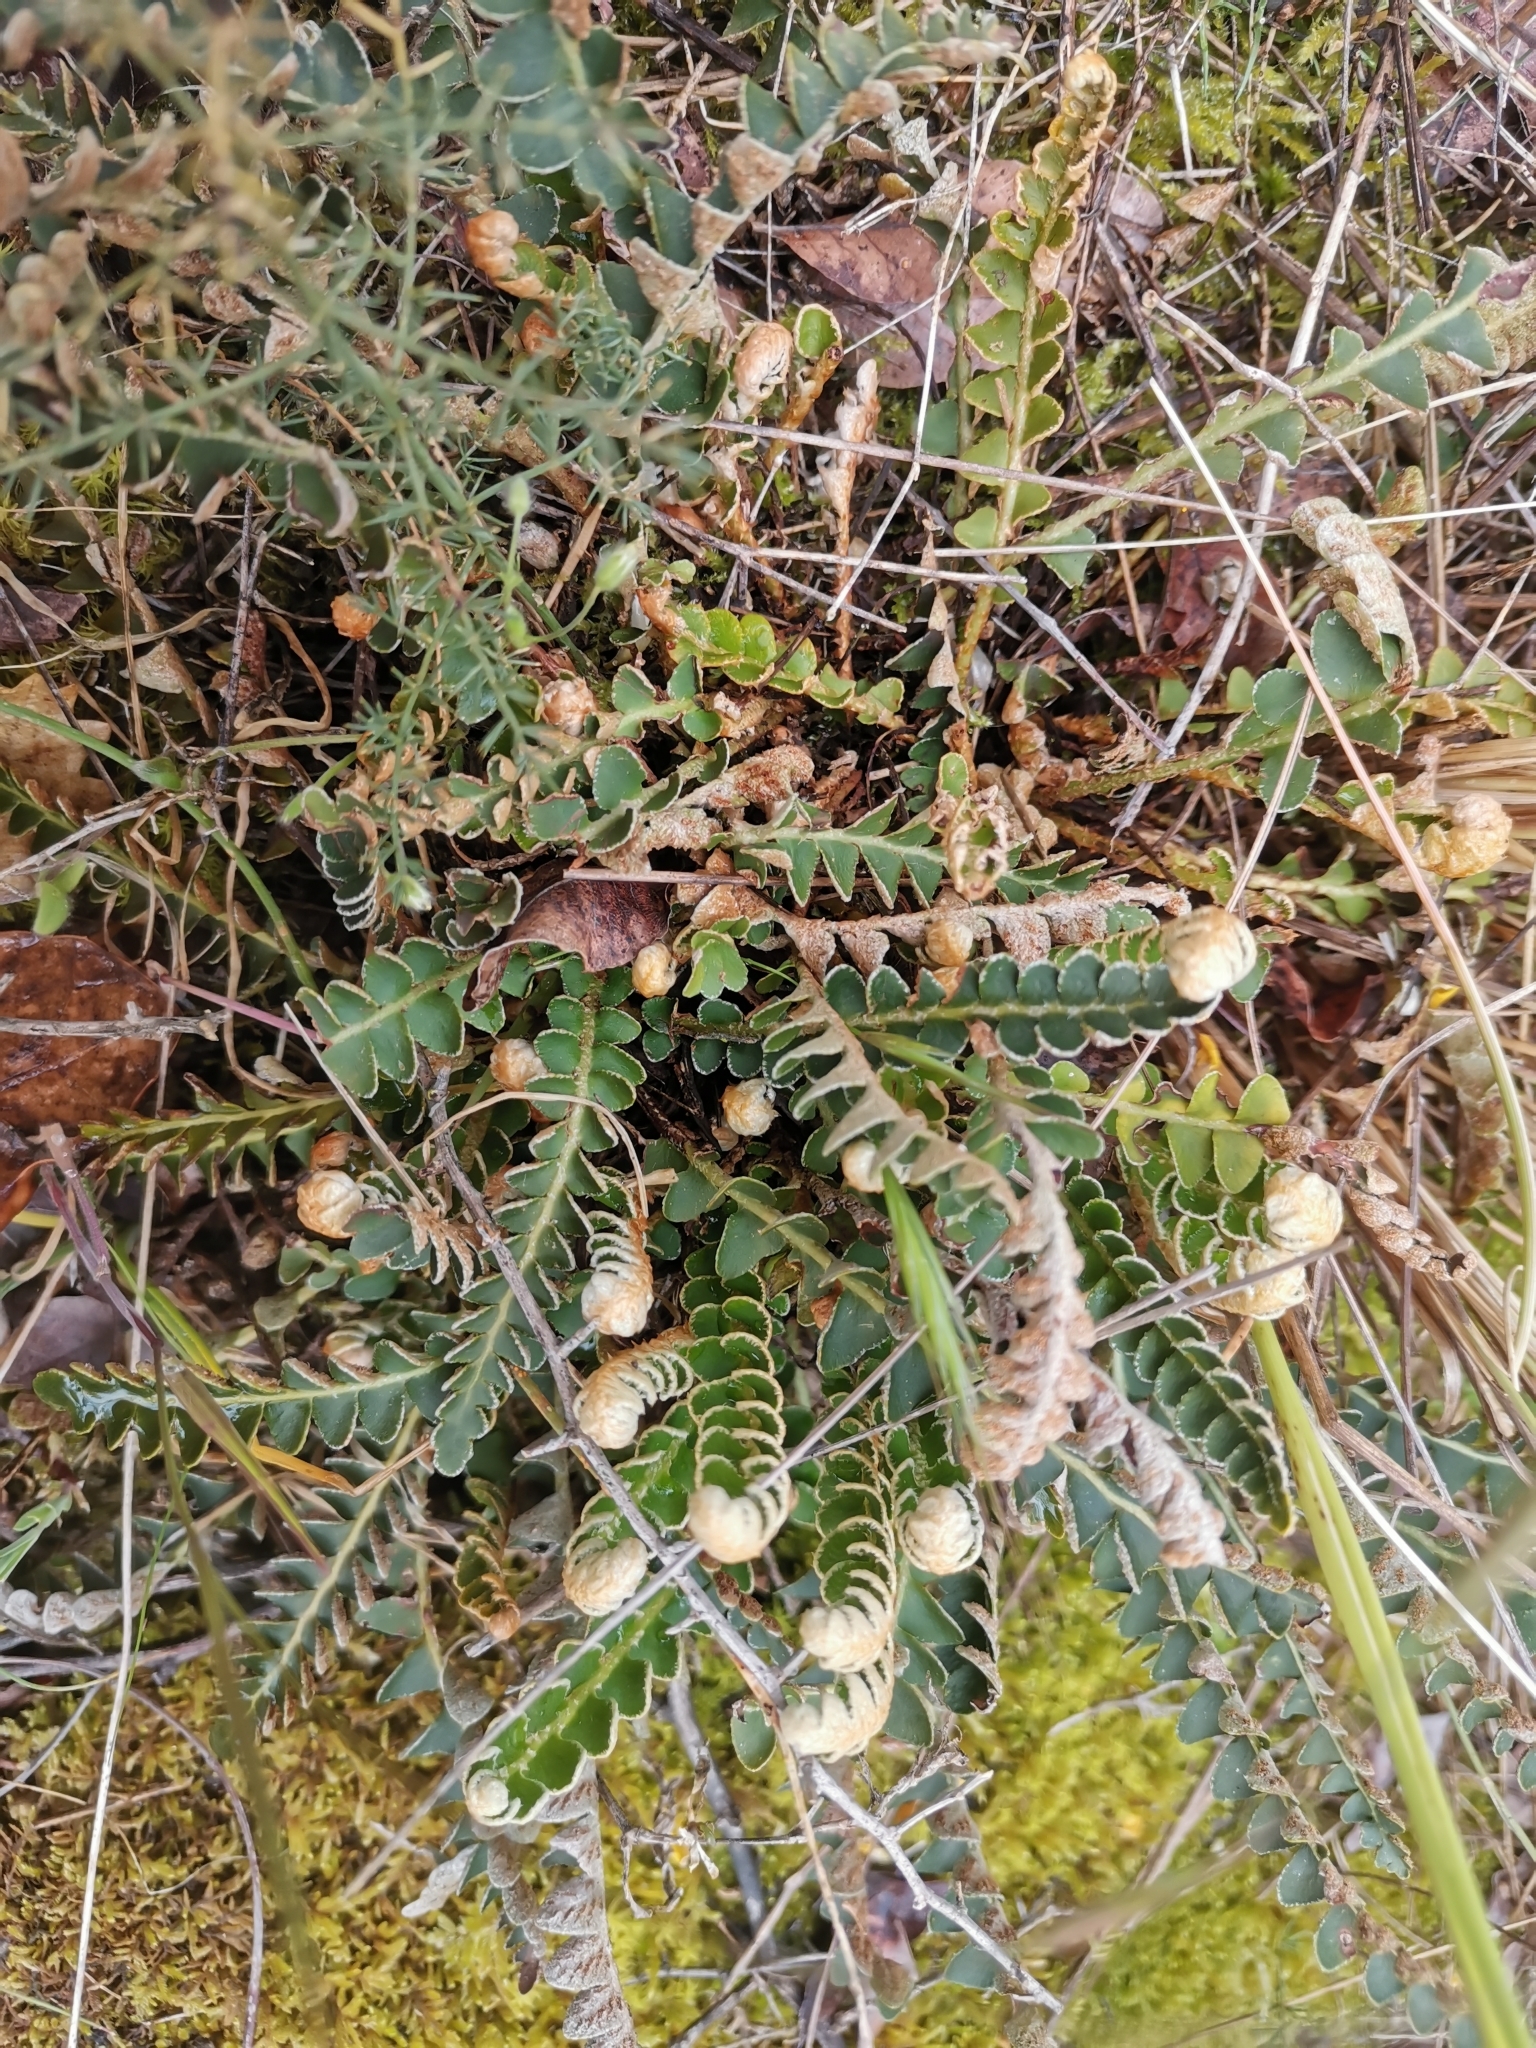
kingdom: Plantae
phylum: Tracheophyta
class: Polypodiopsida
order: Polypodiales
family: Aspleniaceae
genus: Asplenium
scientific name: Asplenium ceterach
